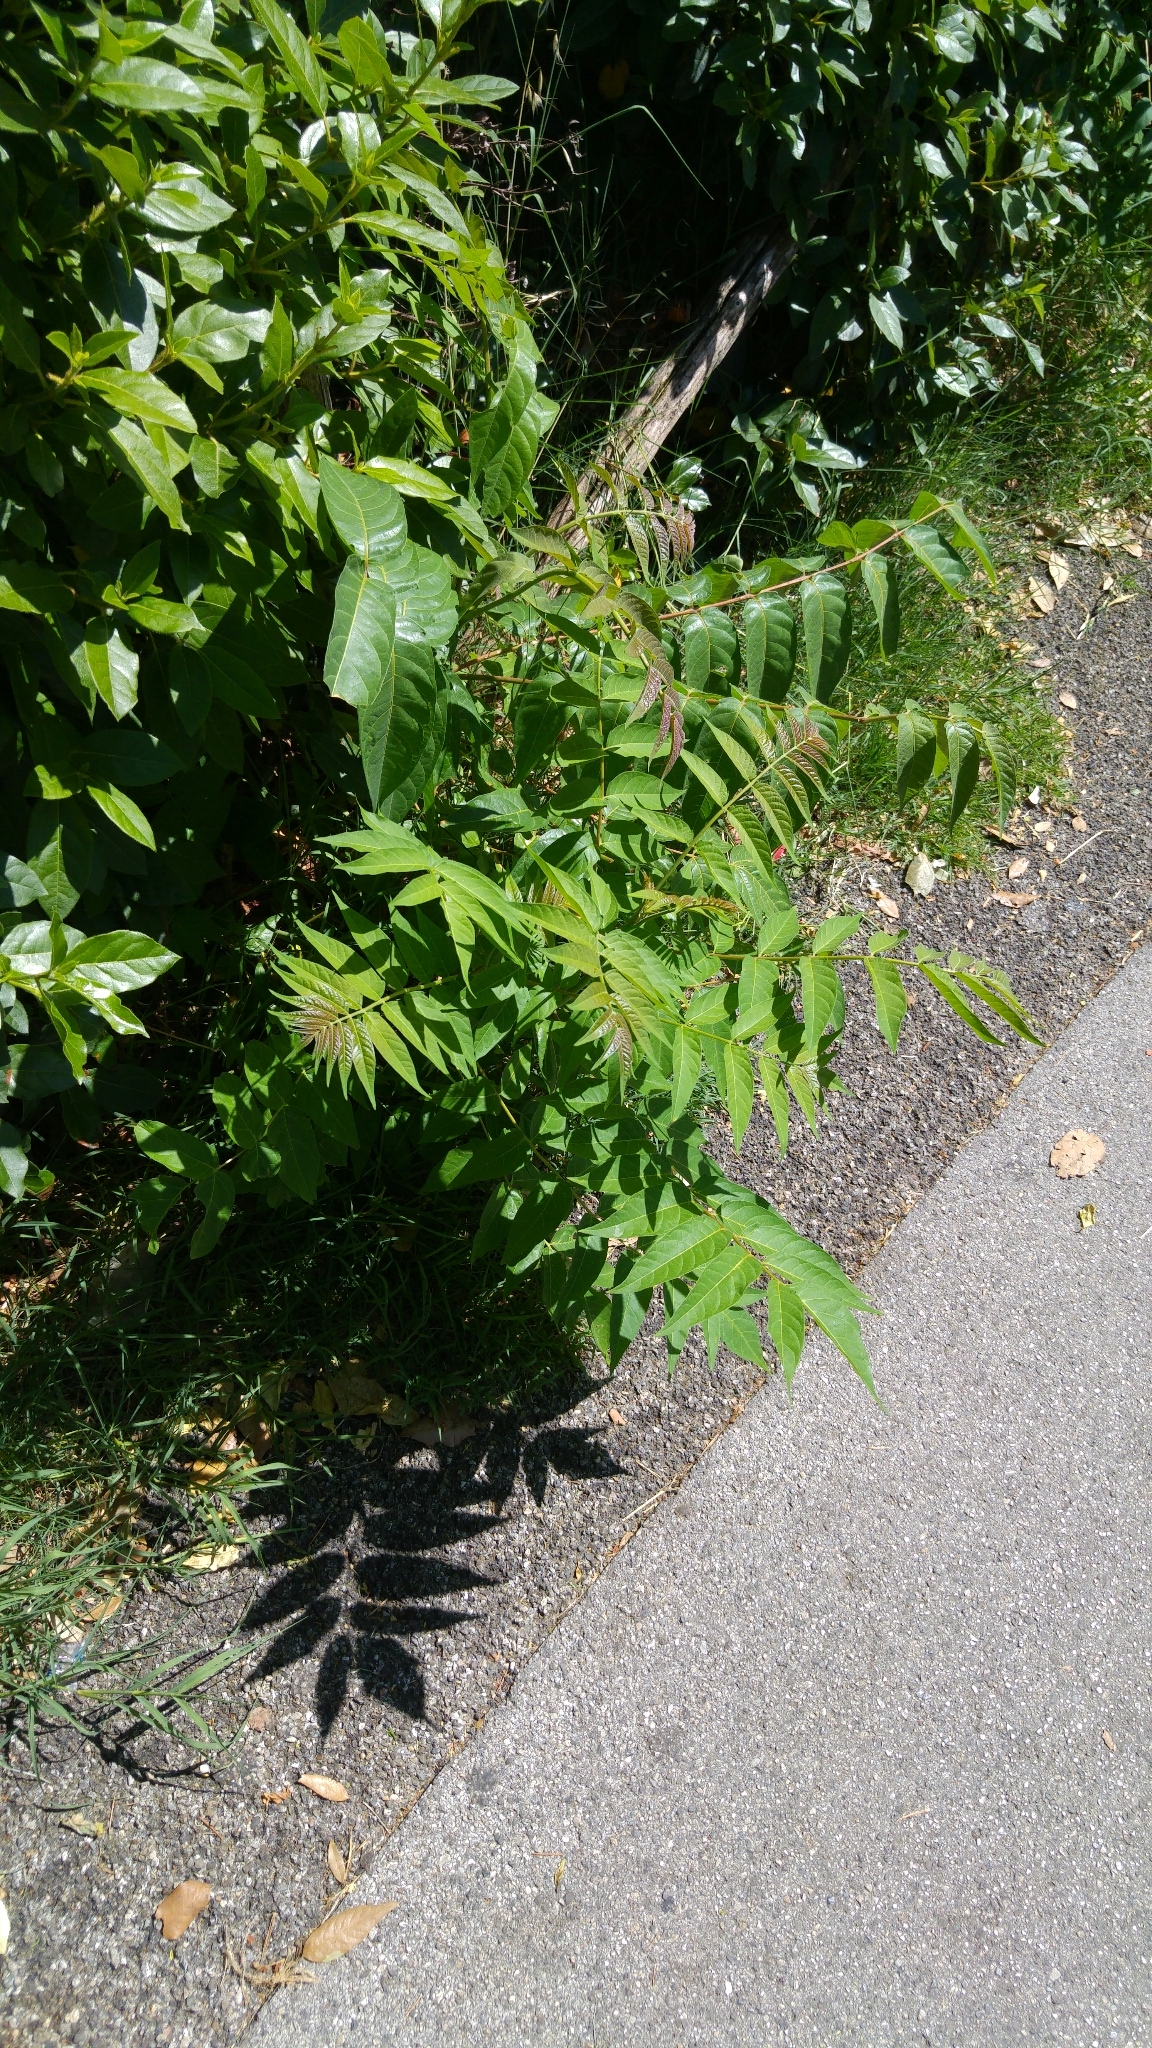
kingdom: Plantae
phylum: Tracheophyta
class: Magnoliopsida
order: Sapindales
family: Simaroubaceae
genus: Ailanthus
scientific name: Ailanthus altissima
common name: Tree-of-heaven
